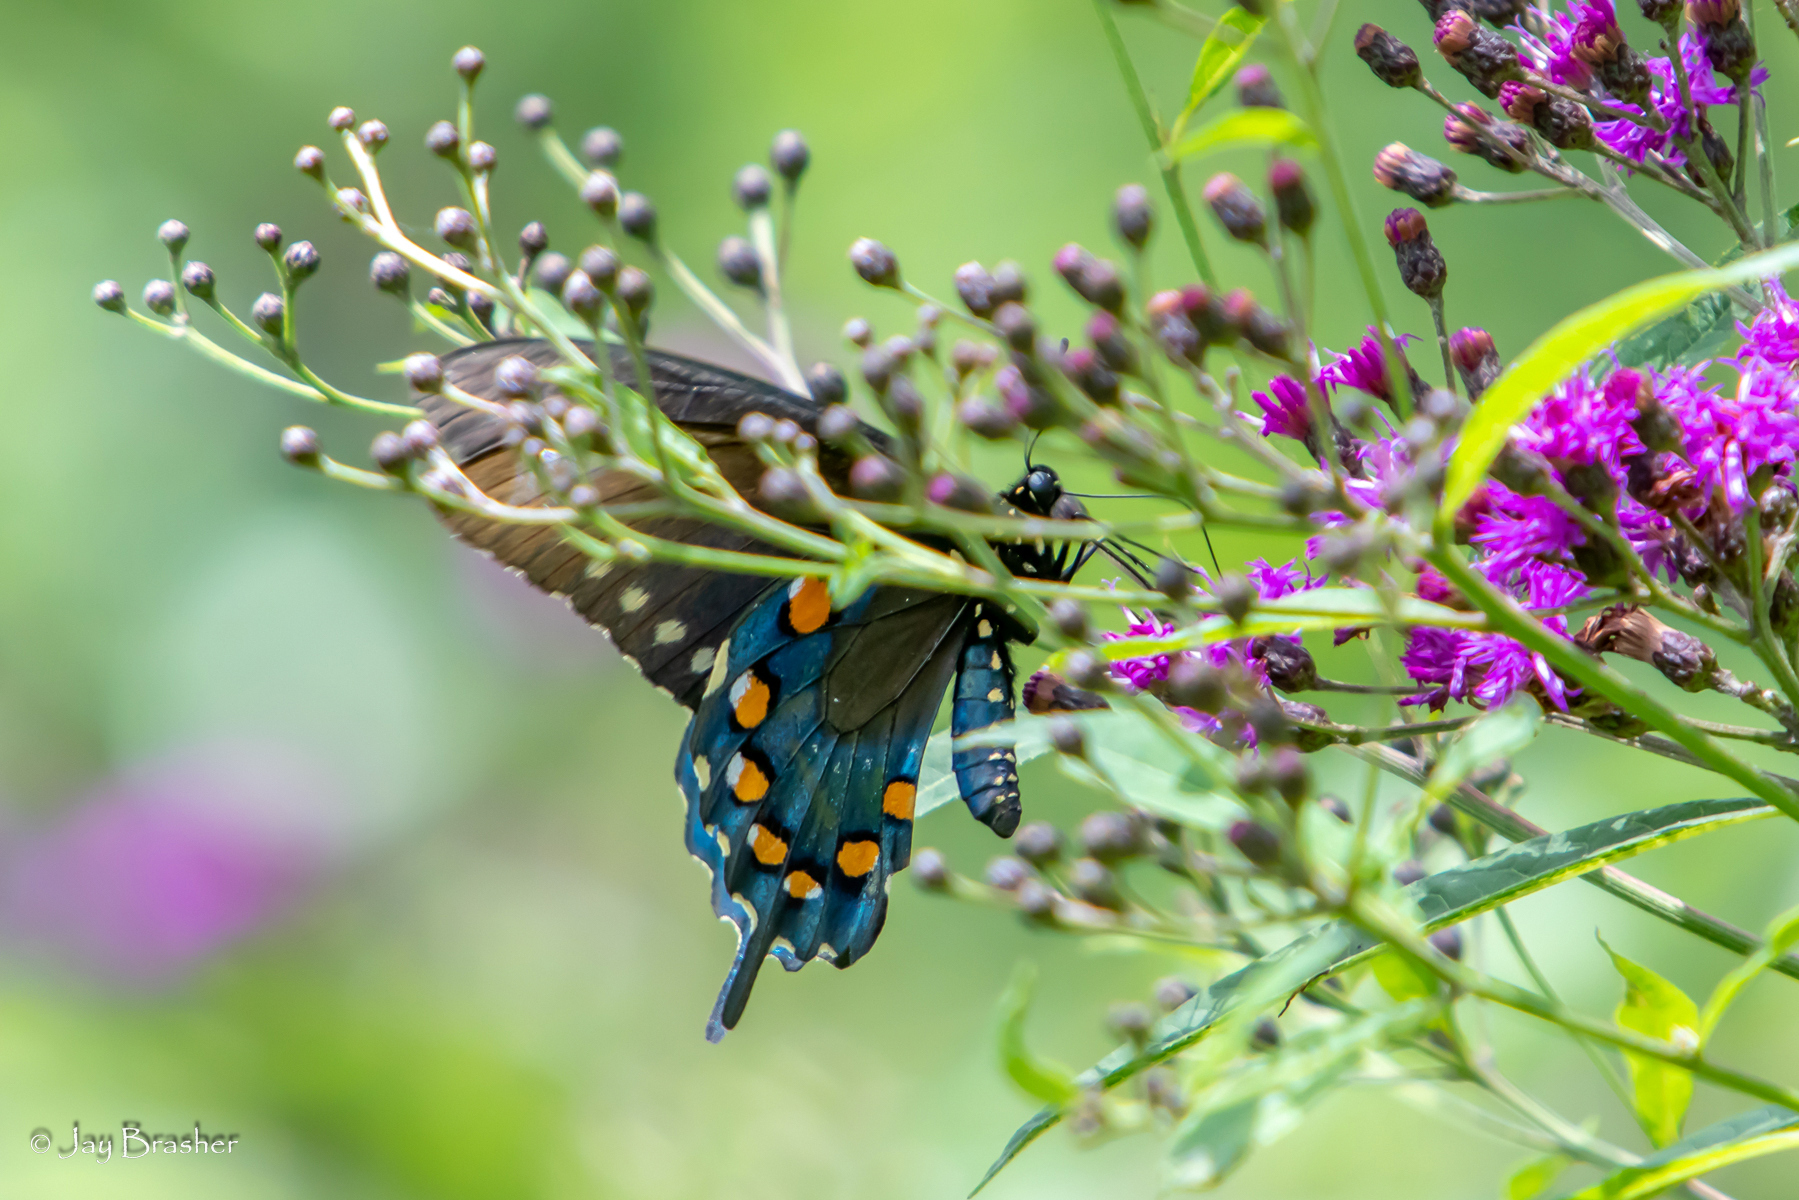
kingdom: Animalia
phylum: Arthropoda
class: Insecta
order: Lepidoptera
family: Papilionidae
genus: Battus
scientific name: Battus philenor
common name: Pipevine swallowtail
